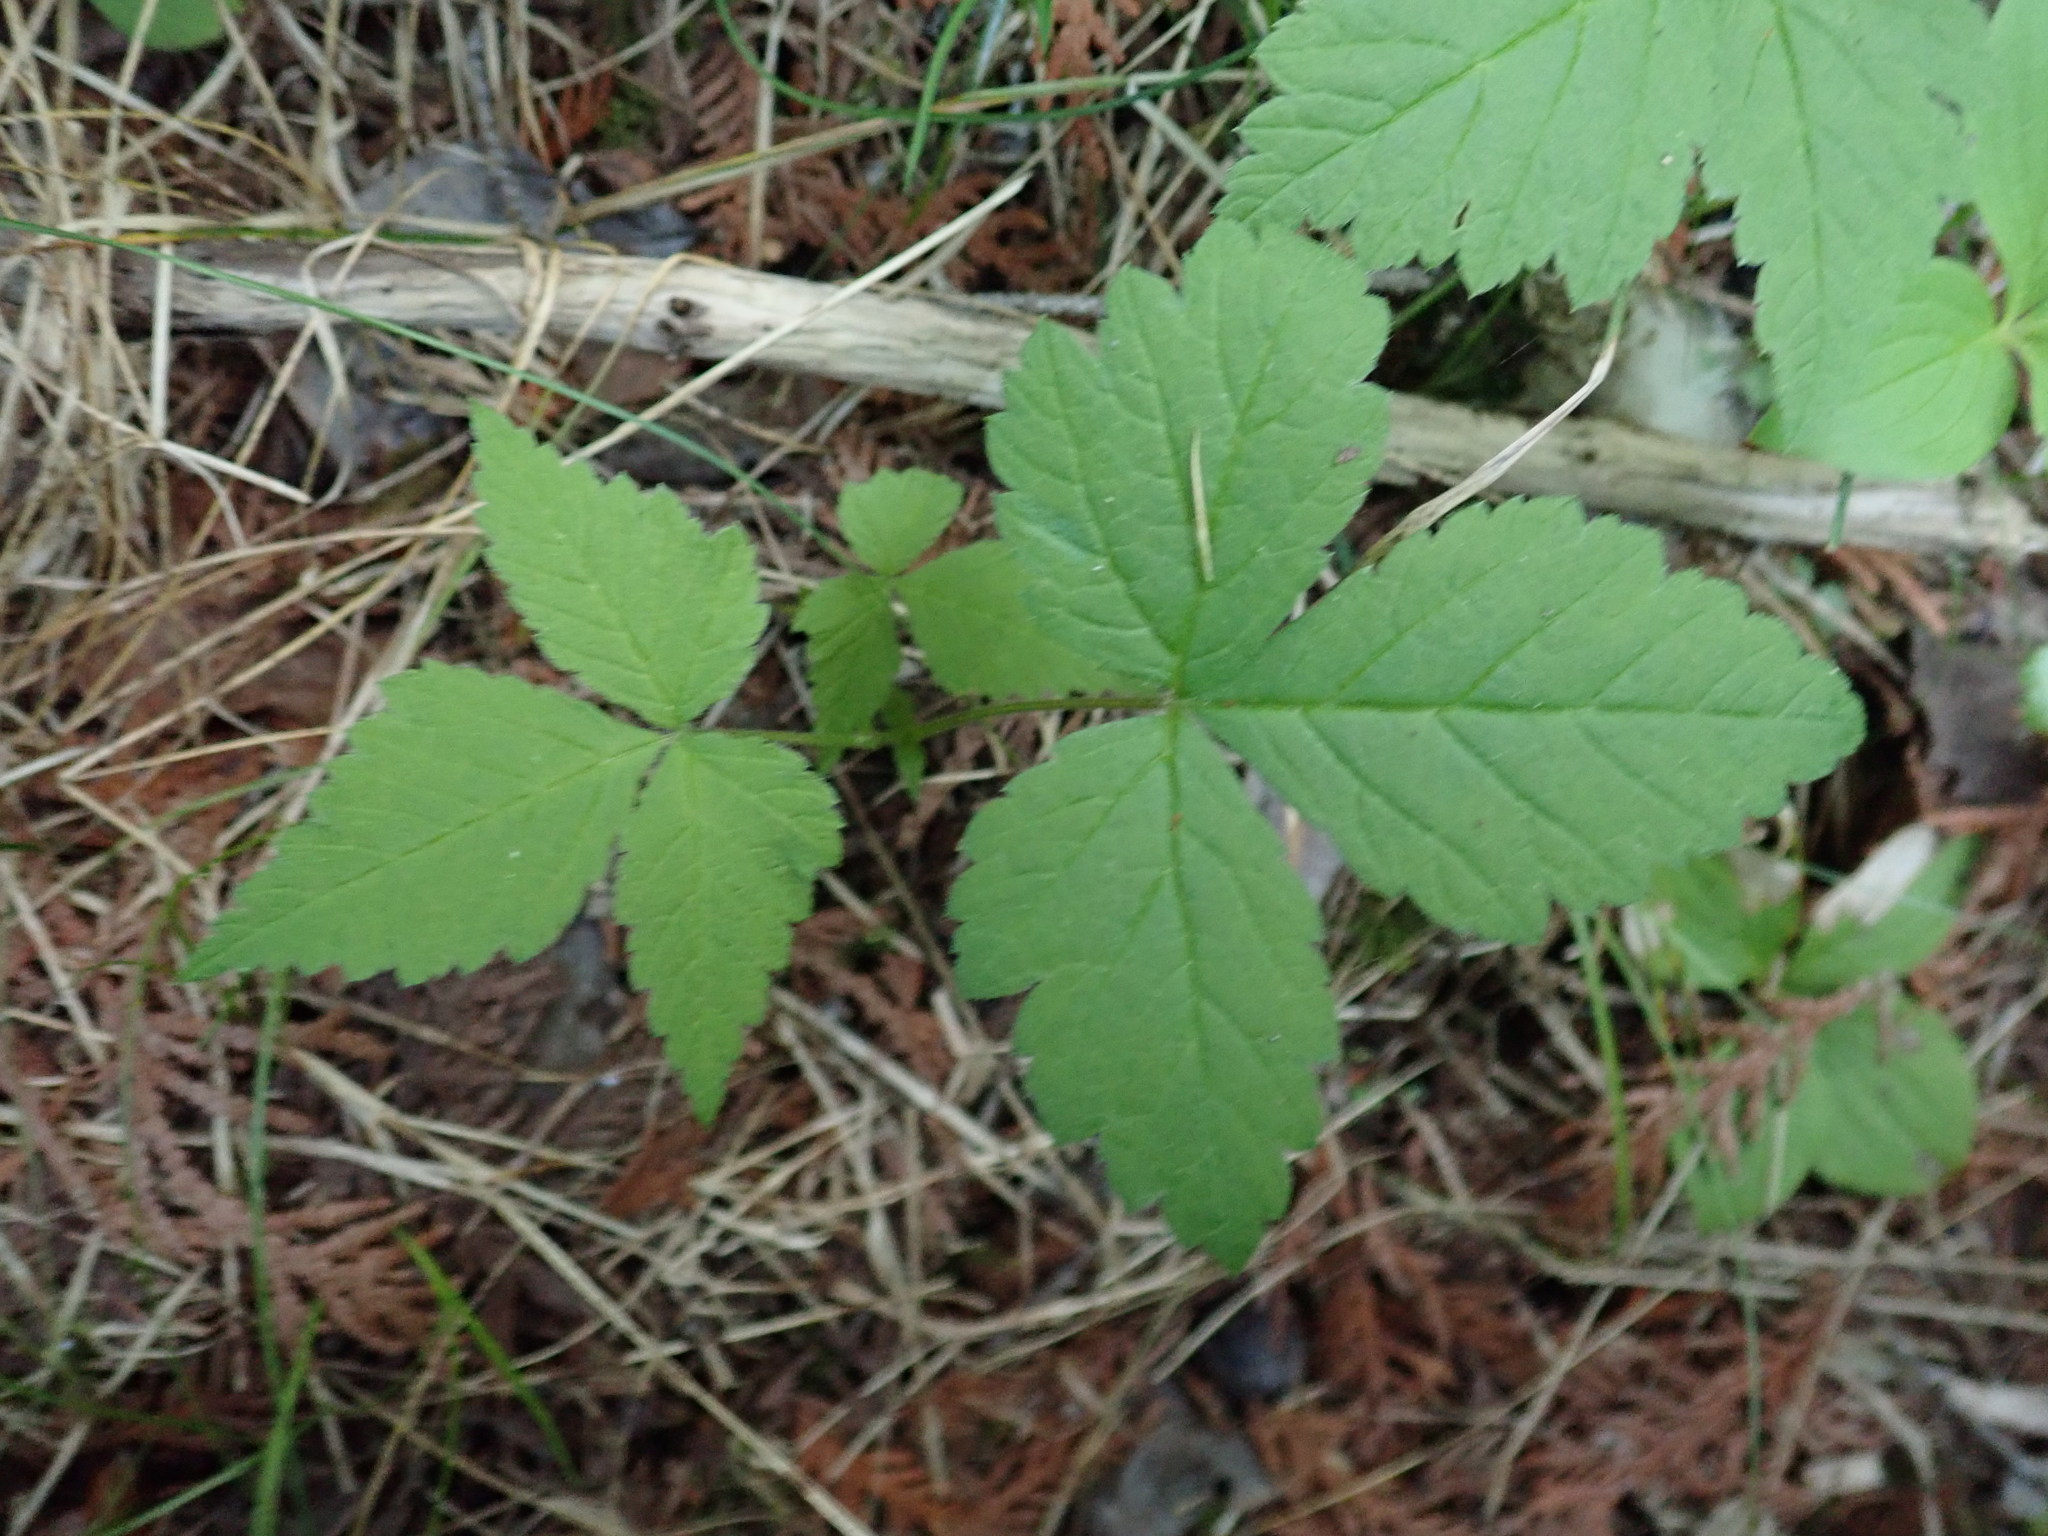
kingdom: Plantae
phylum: Tracheophyta
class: Magnoliopsida
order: Rosales
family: Rosaceae
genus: Rubus
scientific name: Rubus pubescens
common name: Dwarf raspberry
